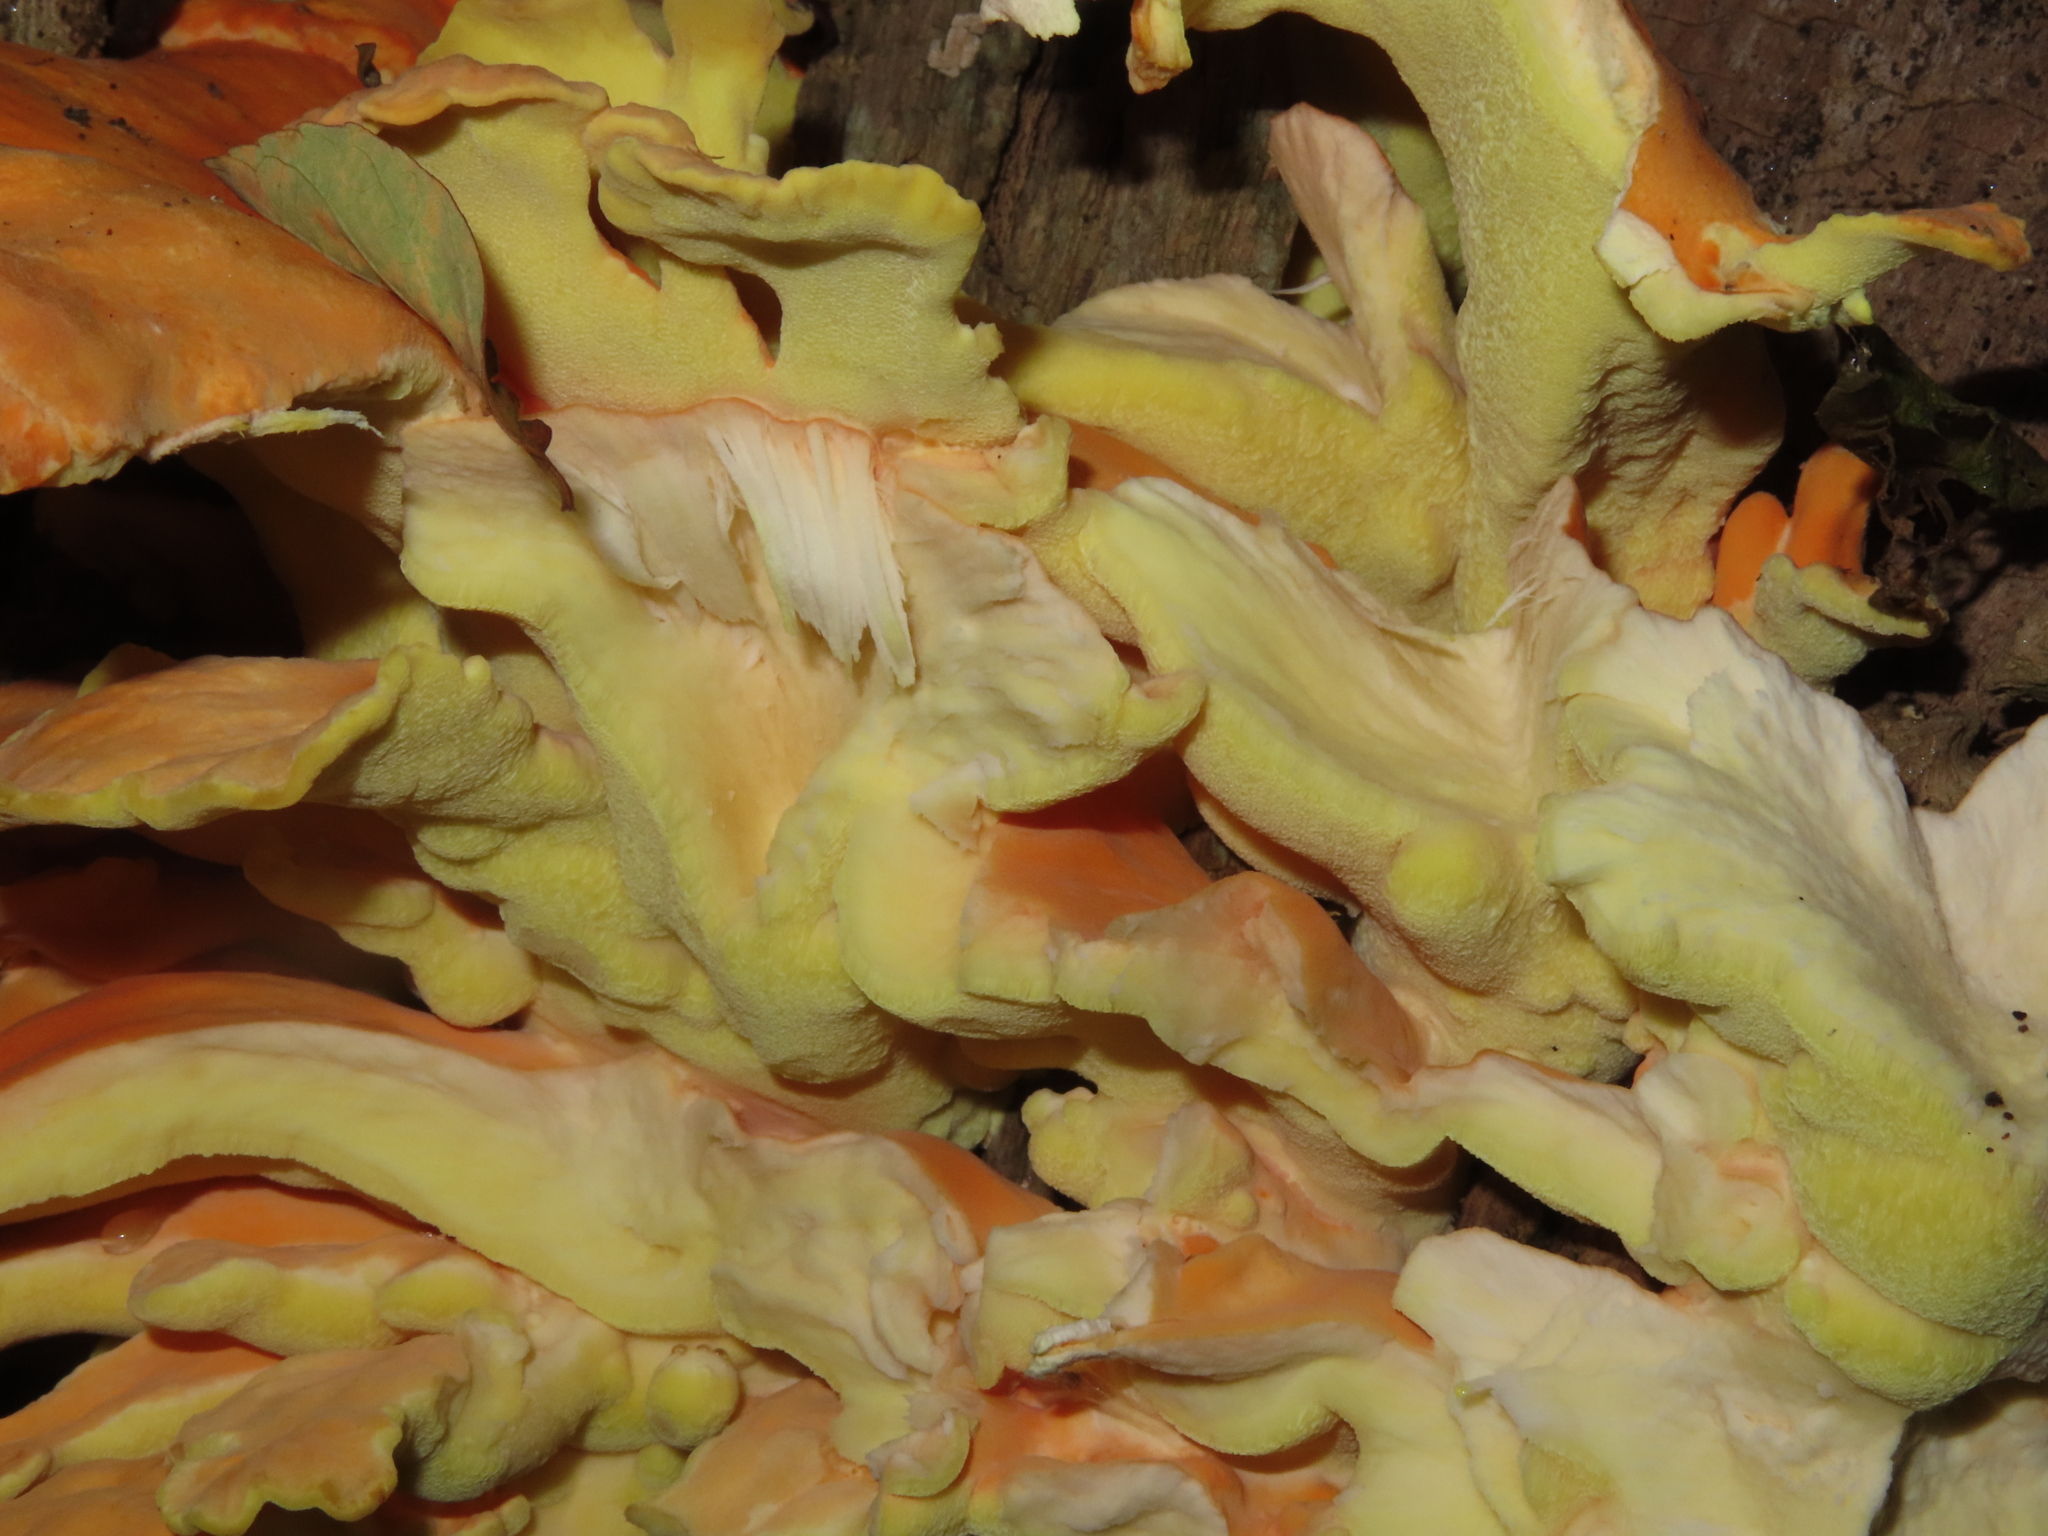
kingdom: Fungi
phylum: Basidiomycota
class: Agaricomycetes
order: Polyporales
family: Laetiporaceae
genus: Laetiporus
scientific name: Laetiporus sulphureus
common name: Chicken of the woods
